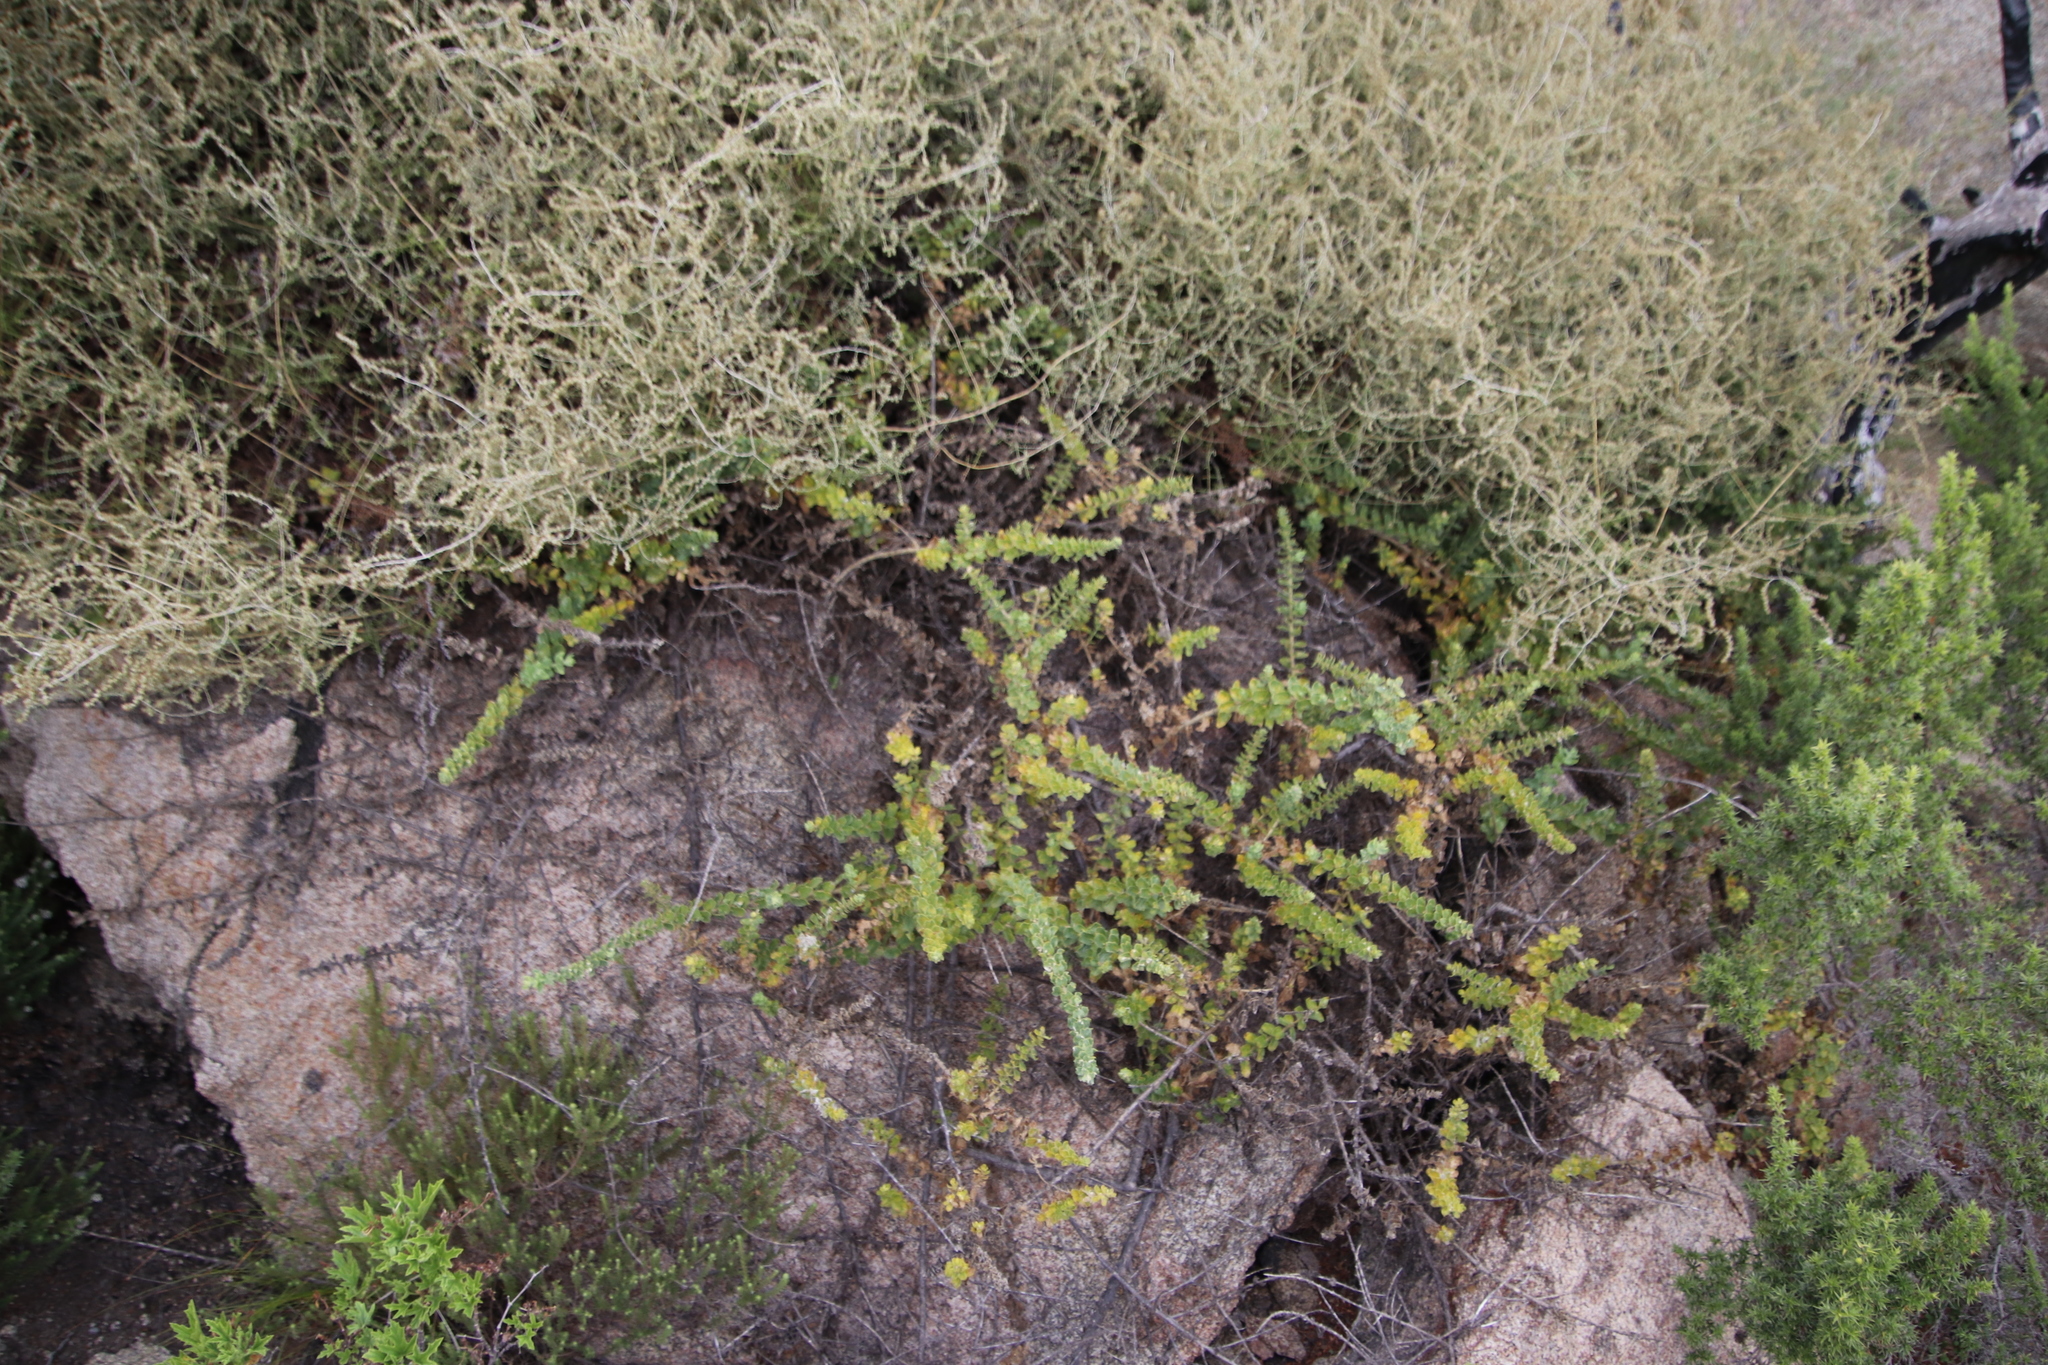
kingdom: Plantae
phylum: Tracheophyta
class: Magnoliopsida
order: Lamiales
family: Scrophulariaceae
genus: Oftia
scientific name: Oftia africana
